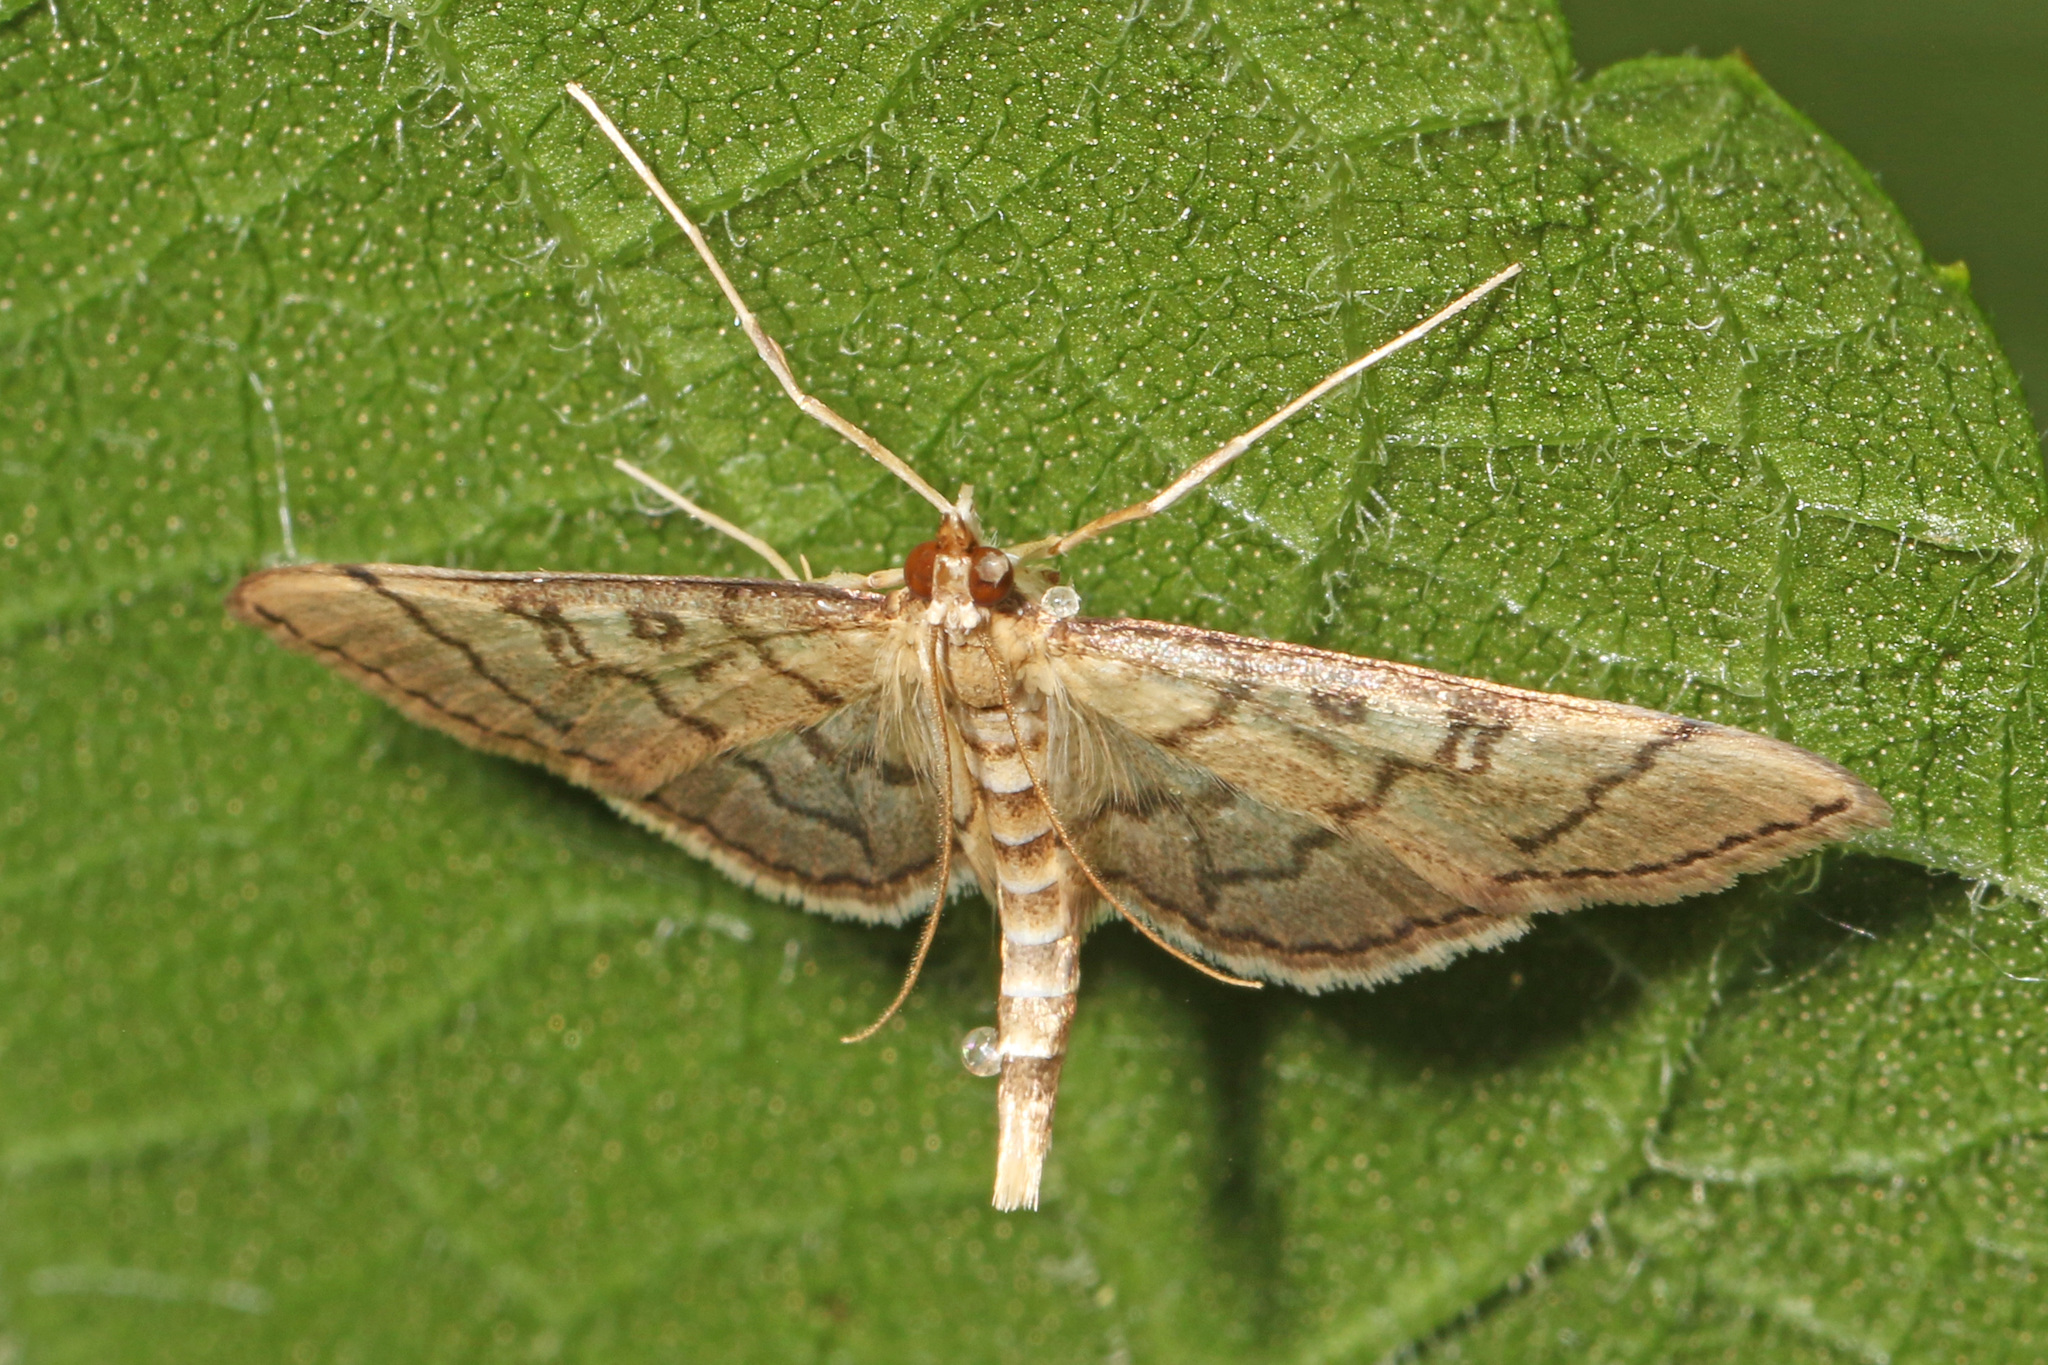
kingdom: Animalia
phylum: Arthropoda
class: Insecta
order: Lepidoptera
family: Crambidae
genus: Lamprosema
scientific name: Lamprosema Blepharomastix ranalis
